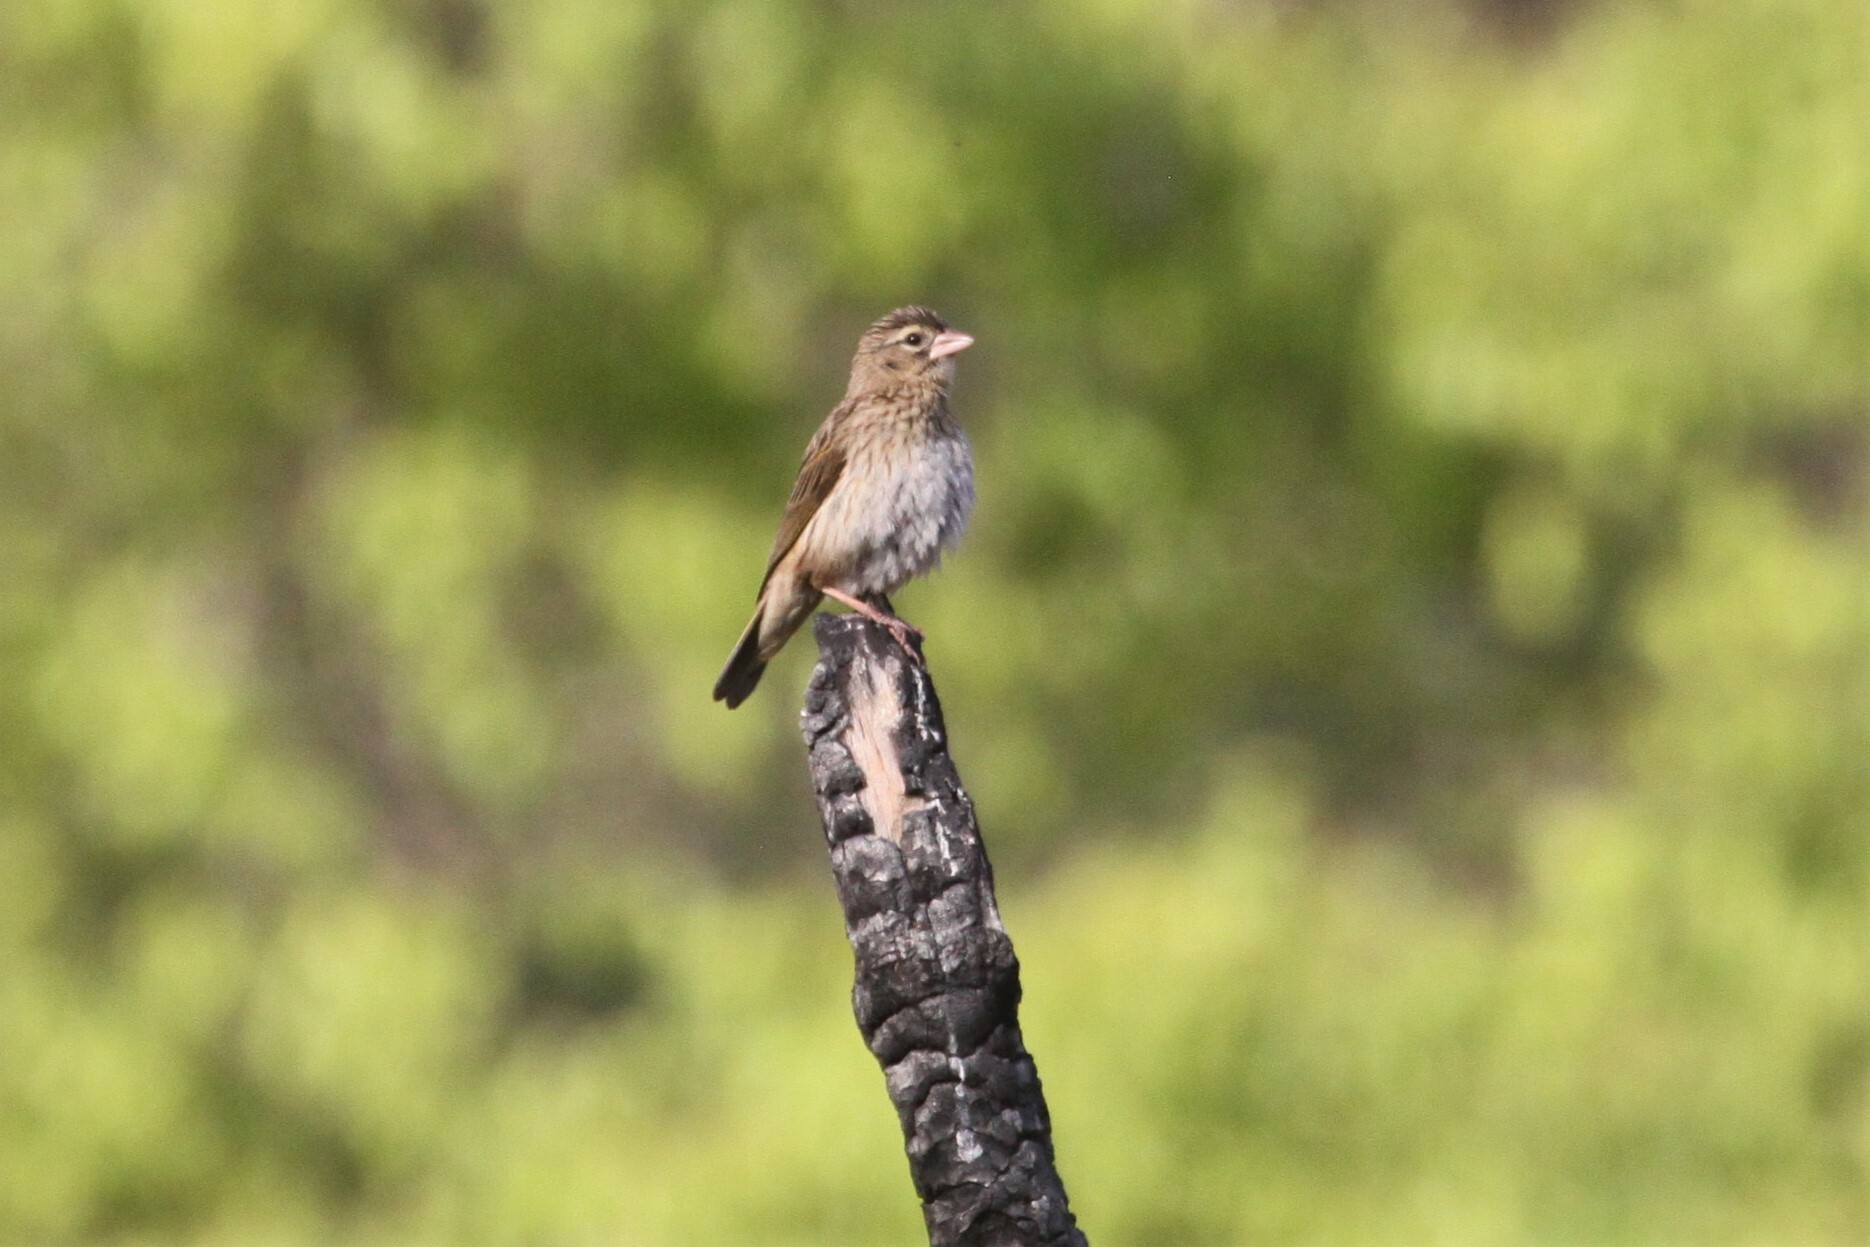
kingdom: Animalia
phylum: Chordata
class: Aves
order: Passeriformes
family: Ploceidae
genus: Euplectes
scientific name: Euplectes capensis
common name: Yellow bishop
